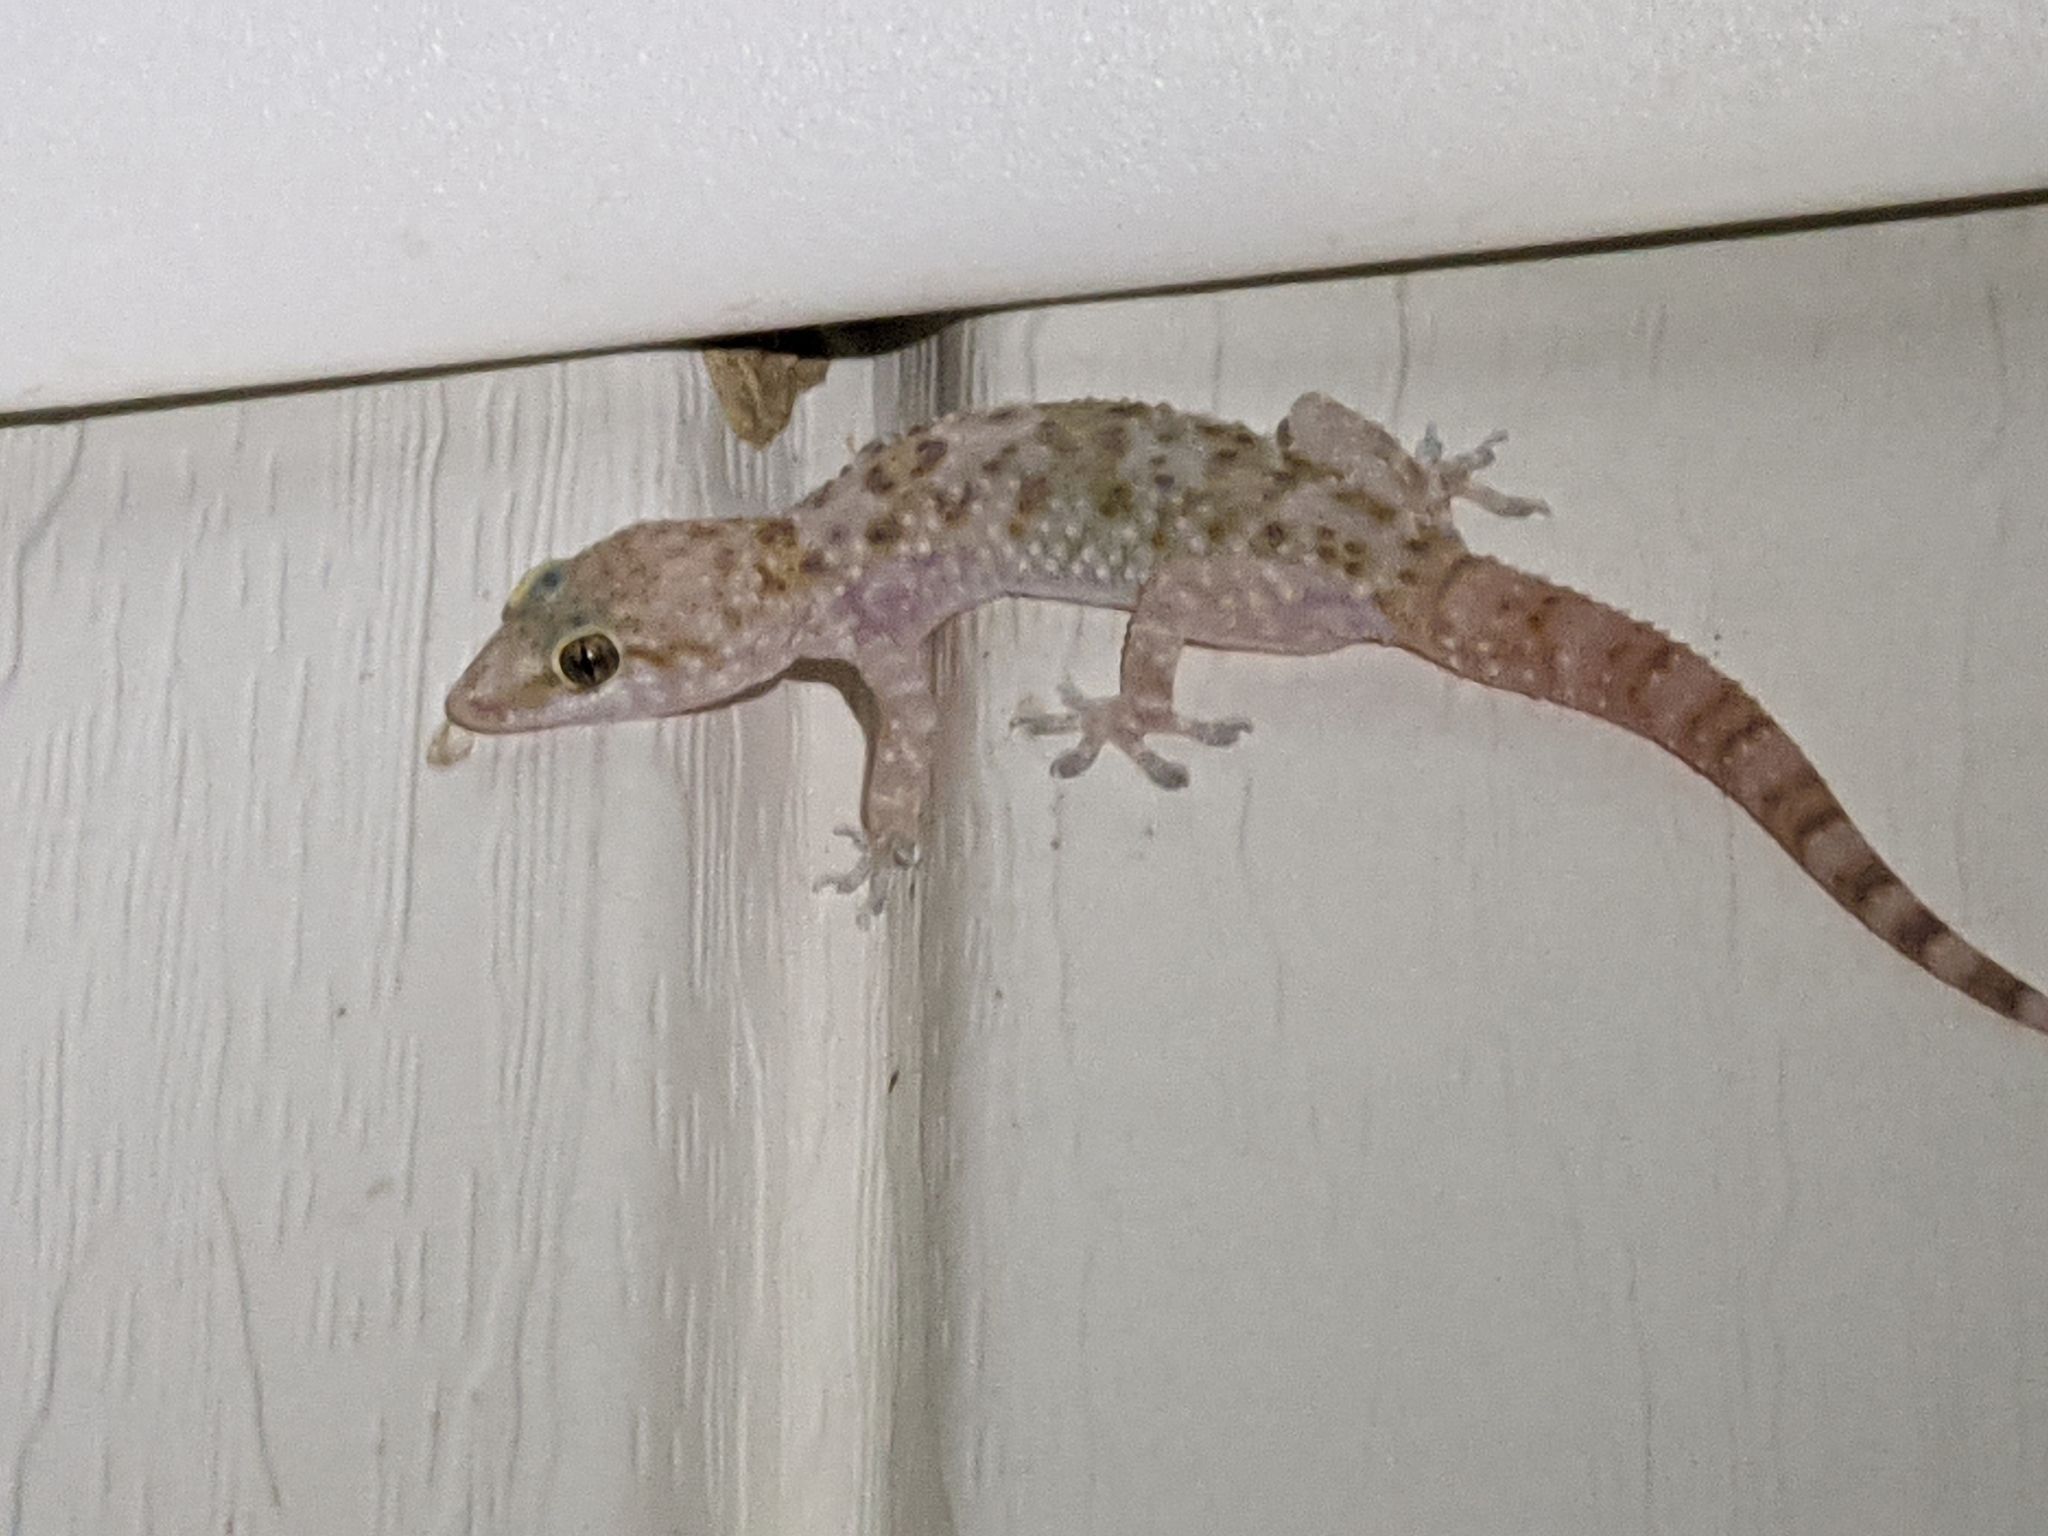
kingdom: Animalia
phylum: Chordata
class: Squamata
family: Gekkonidae
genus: Hemidactylus
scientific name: Hemidactylus turcicus
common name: Turkish gecko
